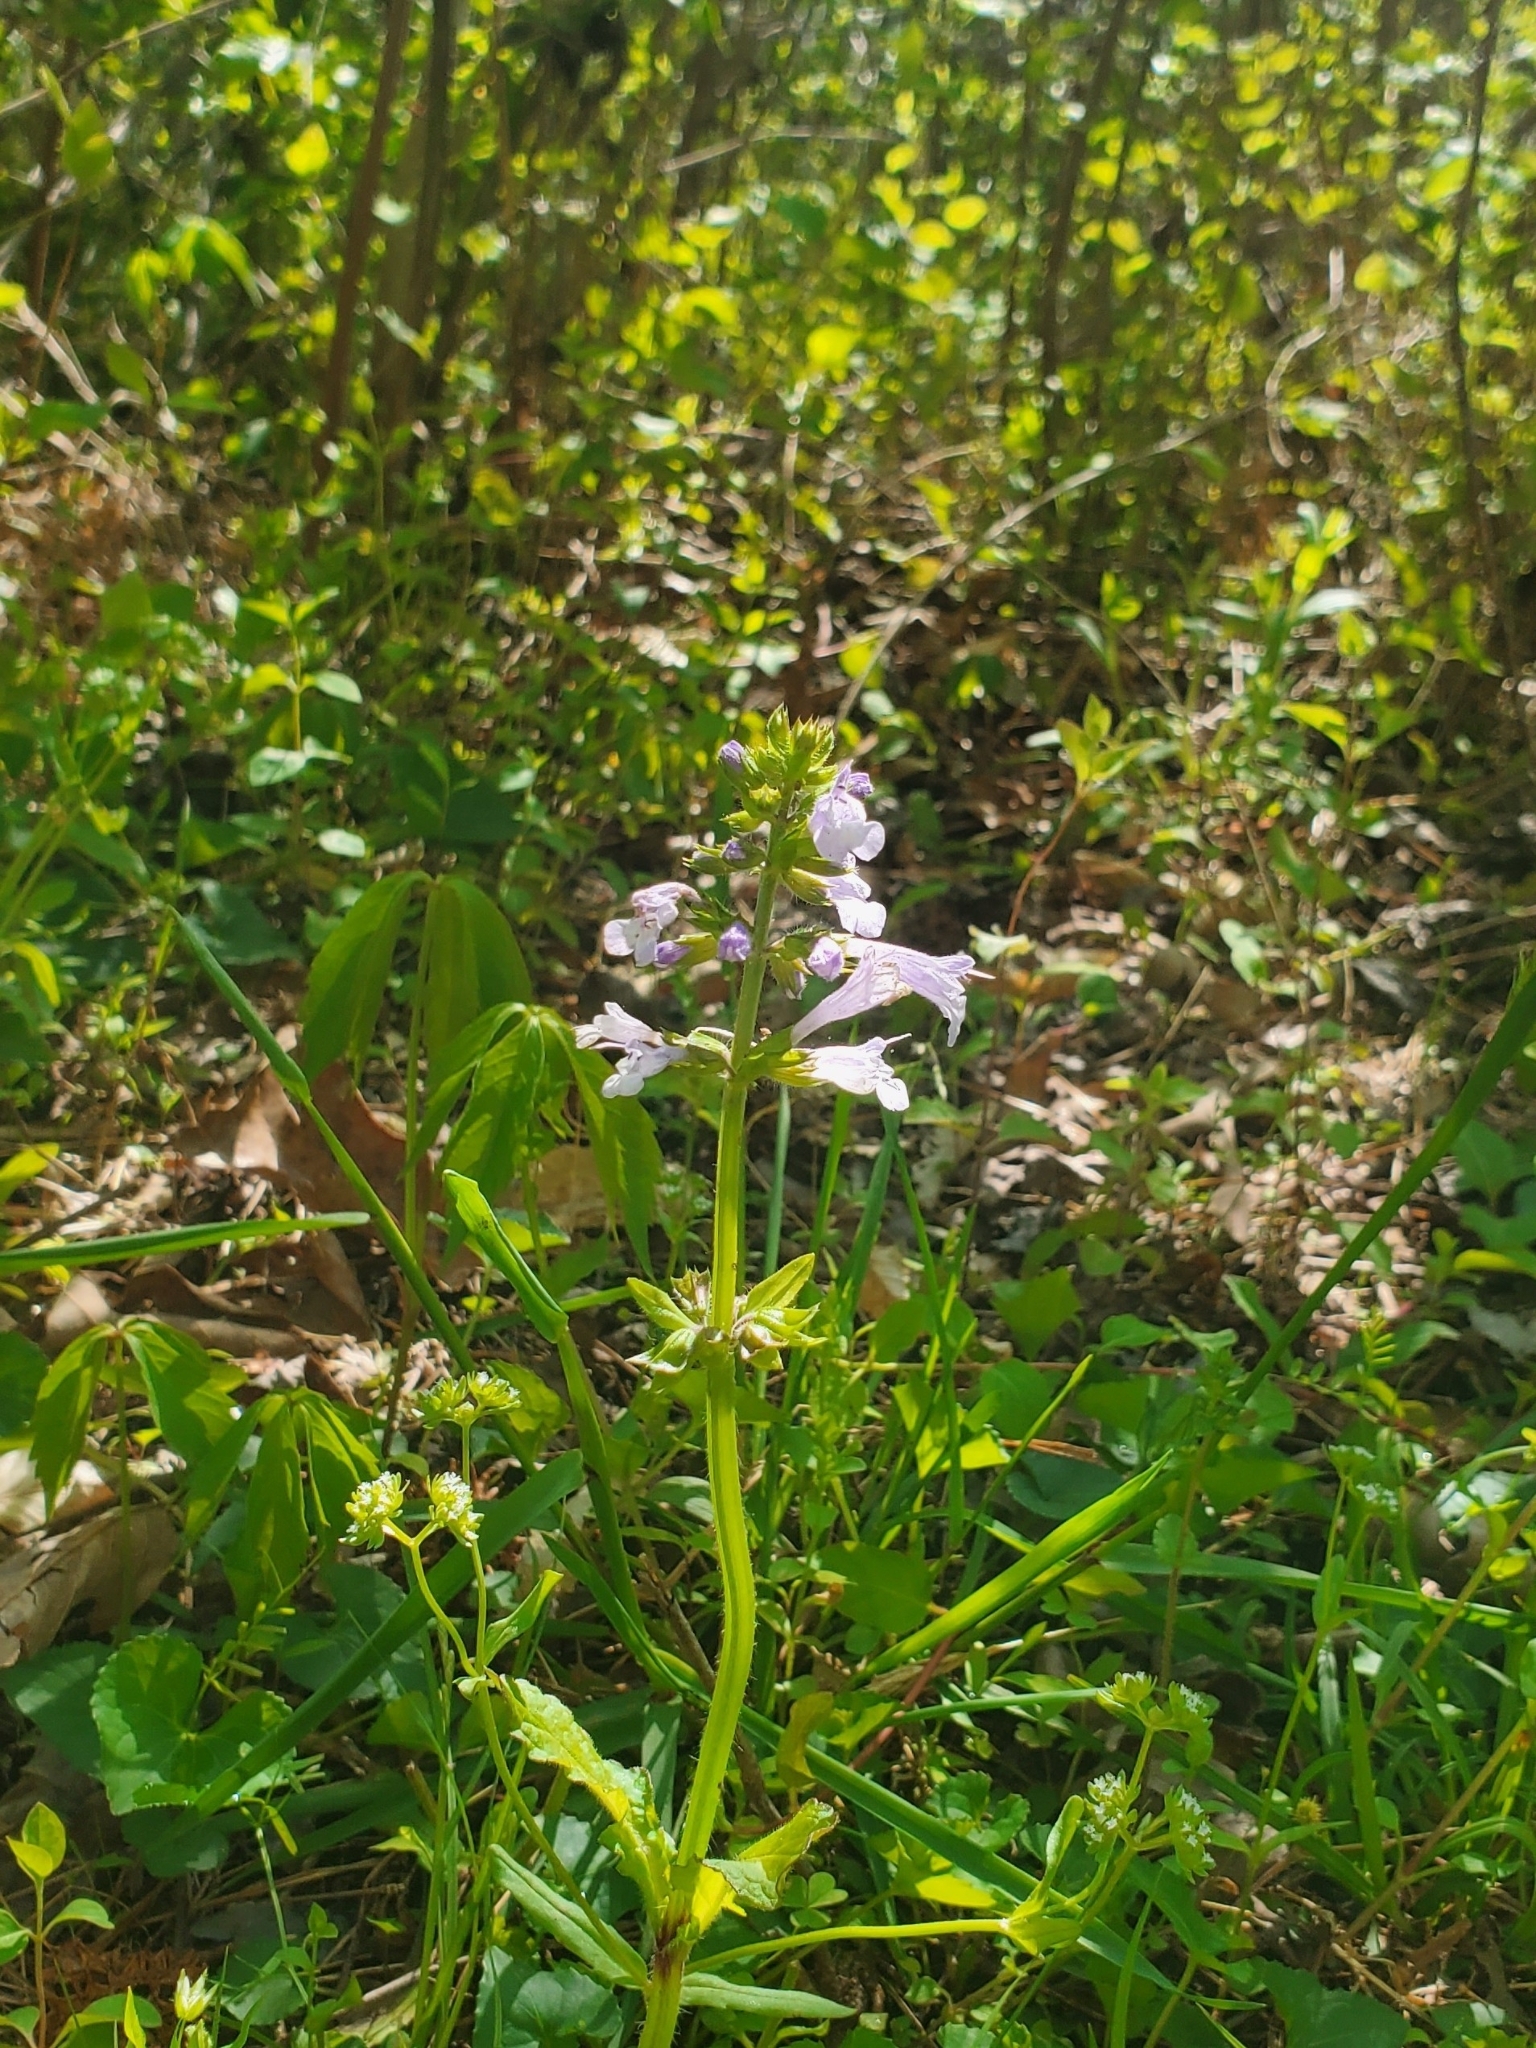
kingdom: Plantae
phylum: Tracheophyta
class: Magnoliopsida
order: Lamiales
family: Lamiaceae
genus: Salvia
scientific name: Salvia lyrata
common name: Cancerweed
